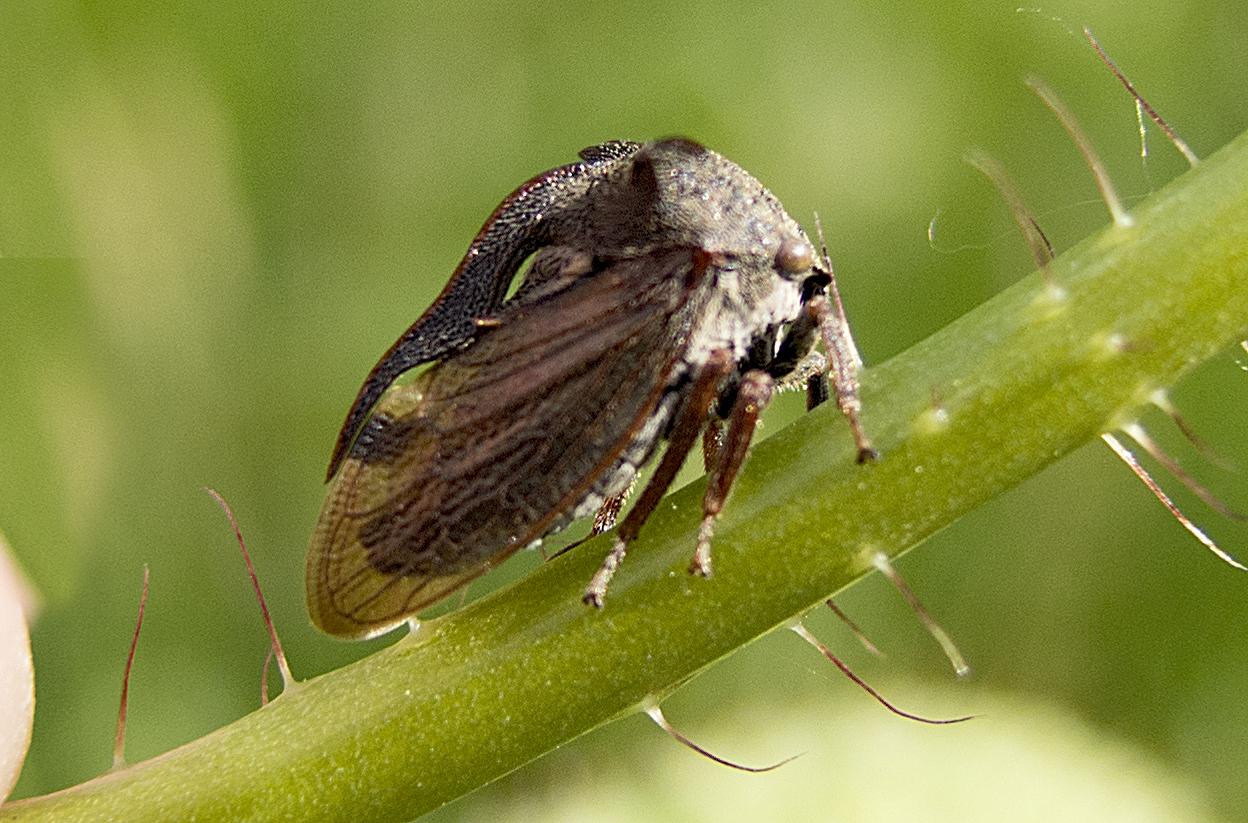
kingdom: Animalia
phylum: Arthropoda
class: Insecta
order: Hemiptera
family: Membracidae
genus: Centrotus
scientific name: Centrotus cornuta
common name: Treehopper
